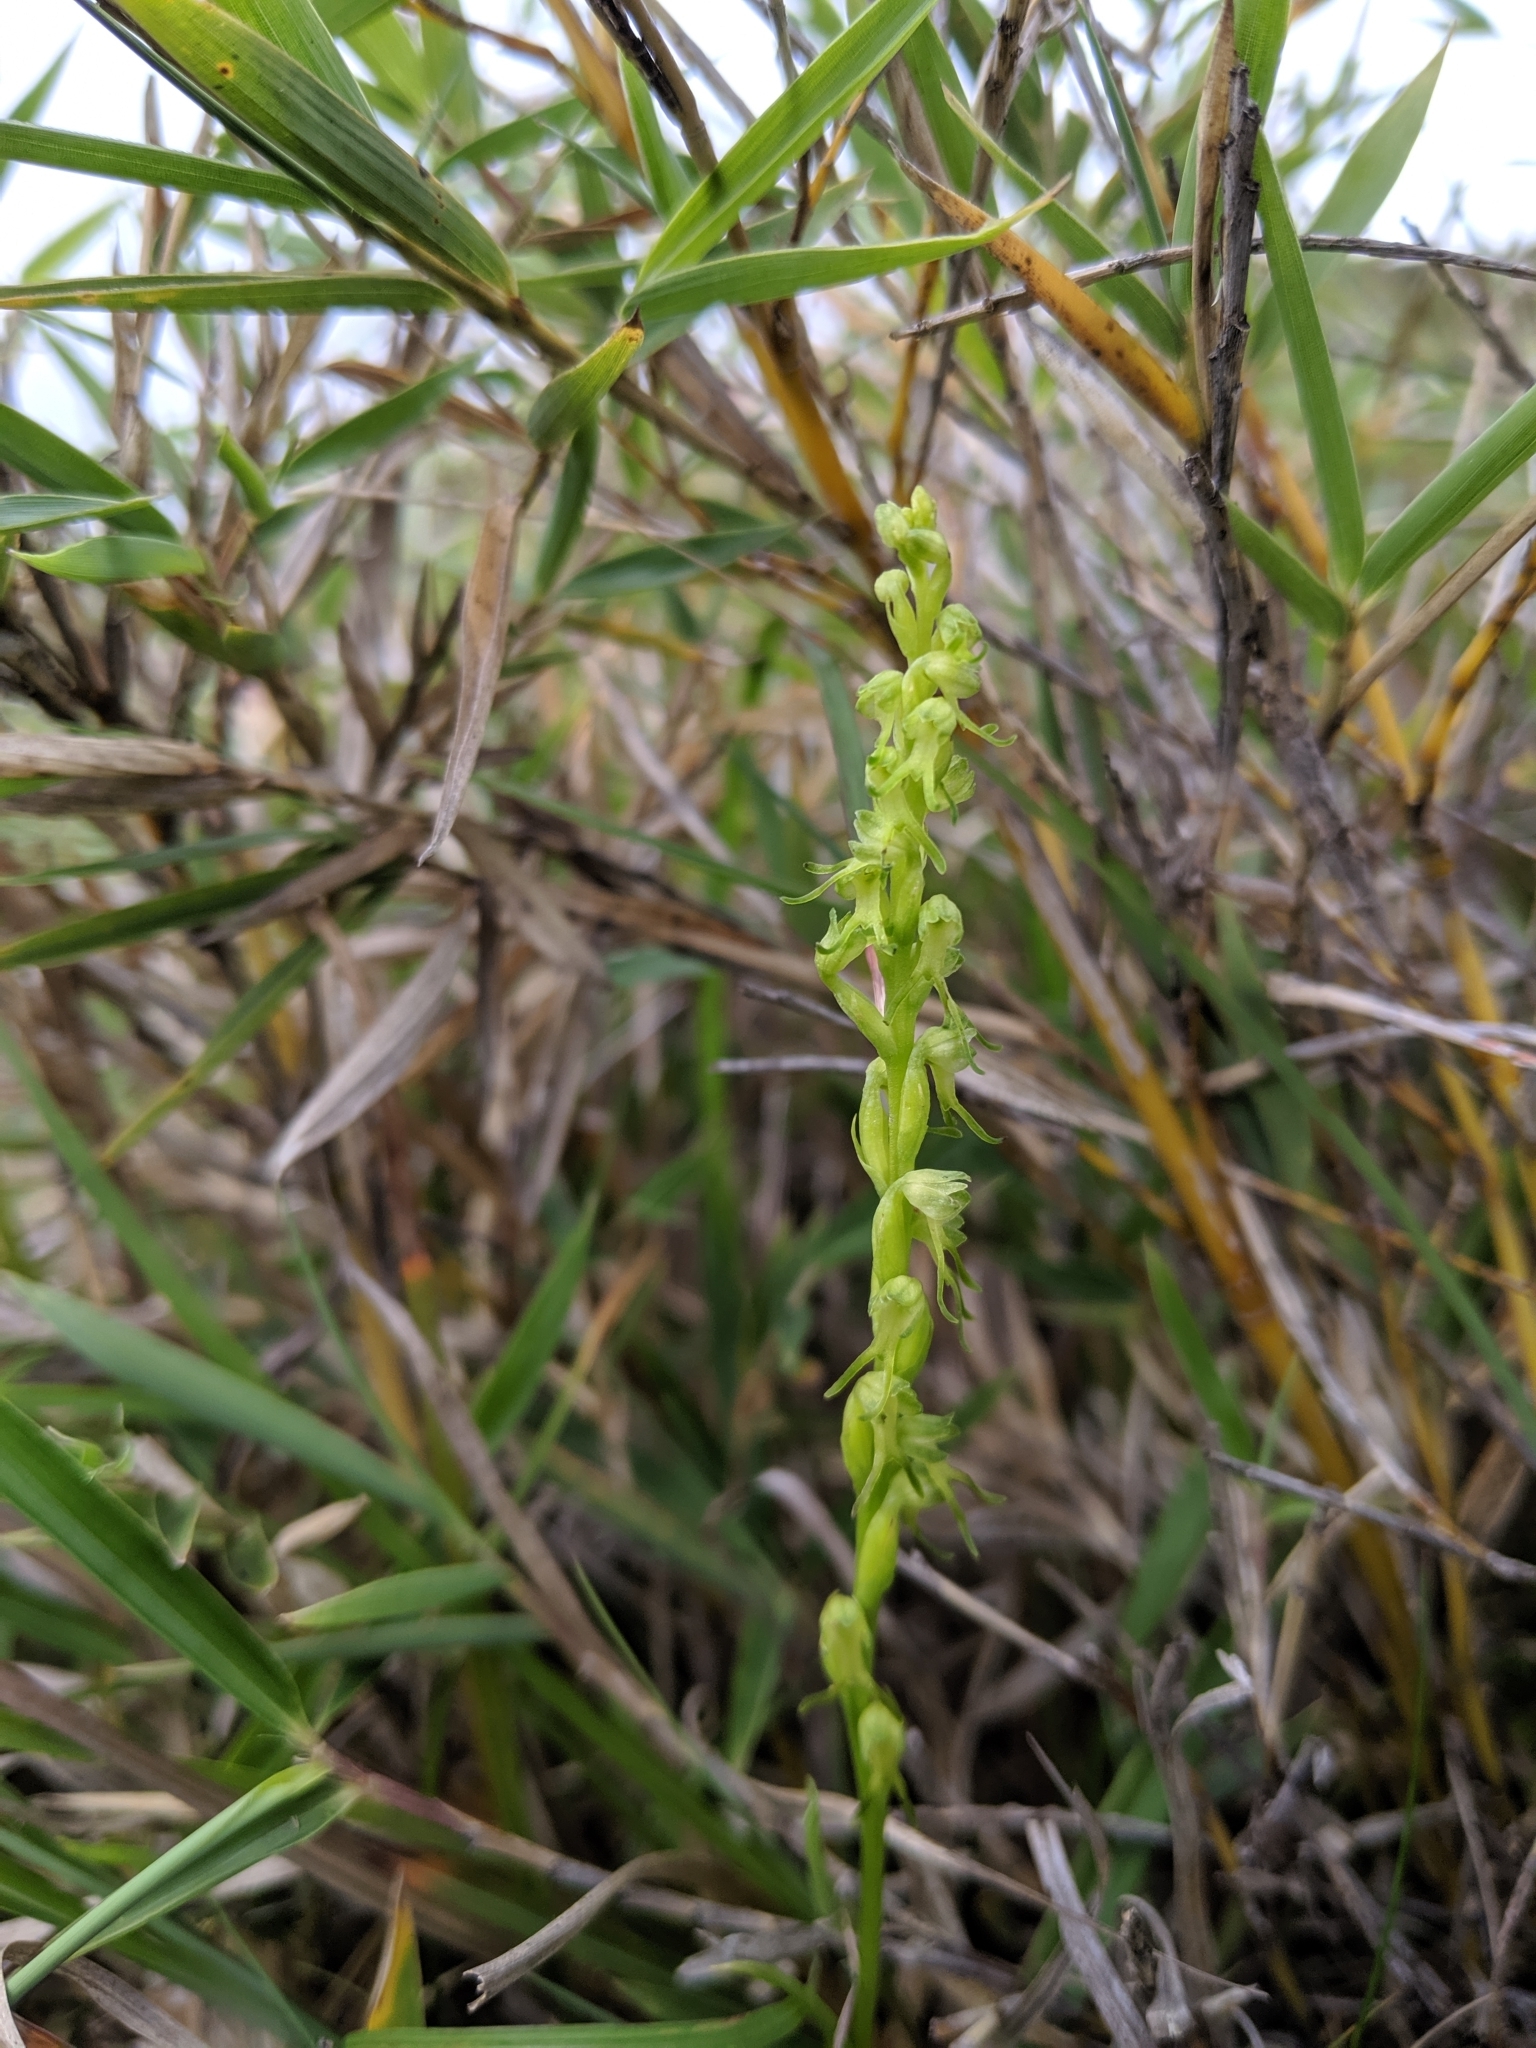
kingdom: Plantae
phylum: Tracheophyta
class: Liliopsida
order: Asparagales
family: Orchidaceae
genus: Herminium
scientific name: Herminium lanceum
